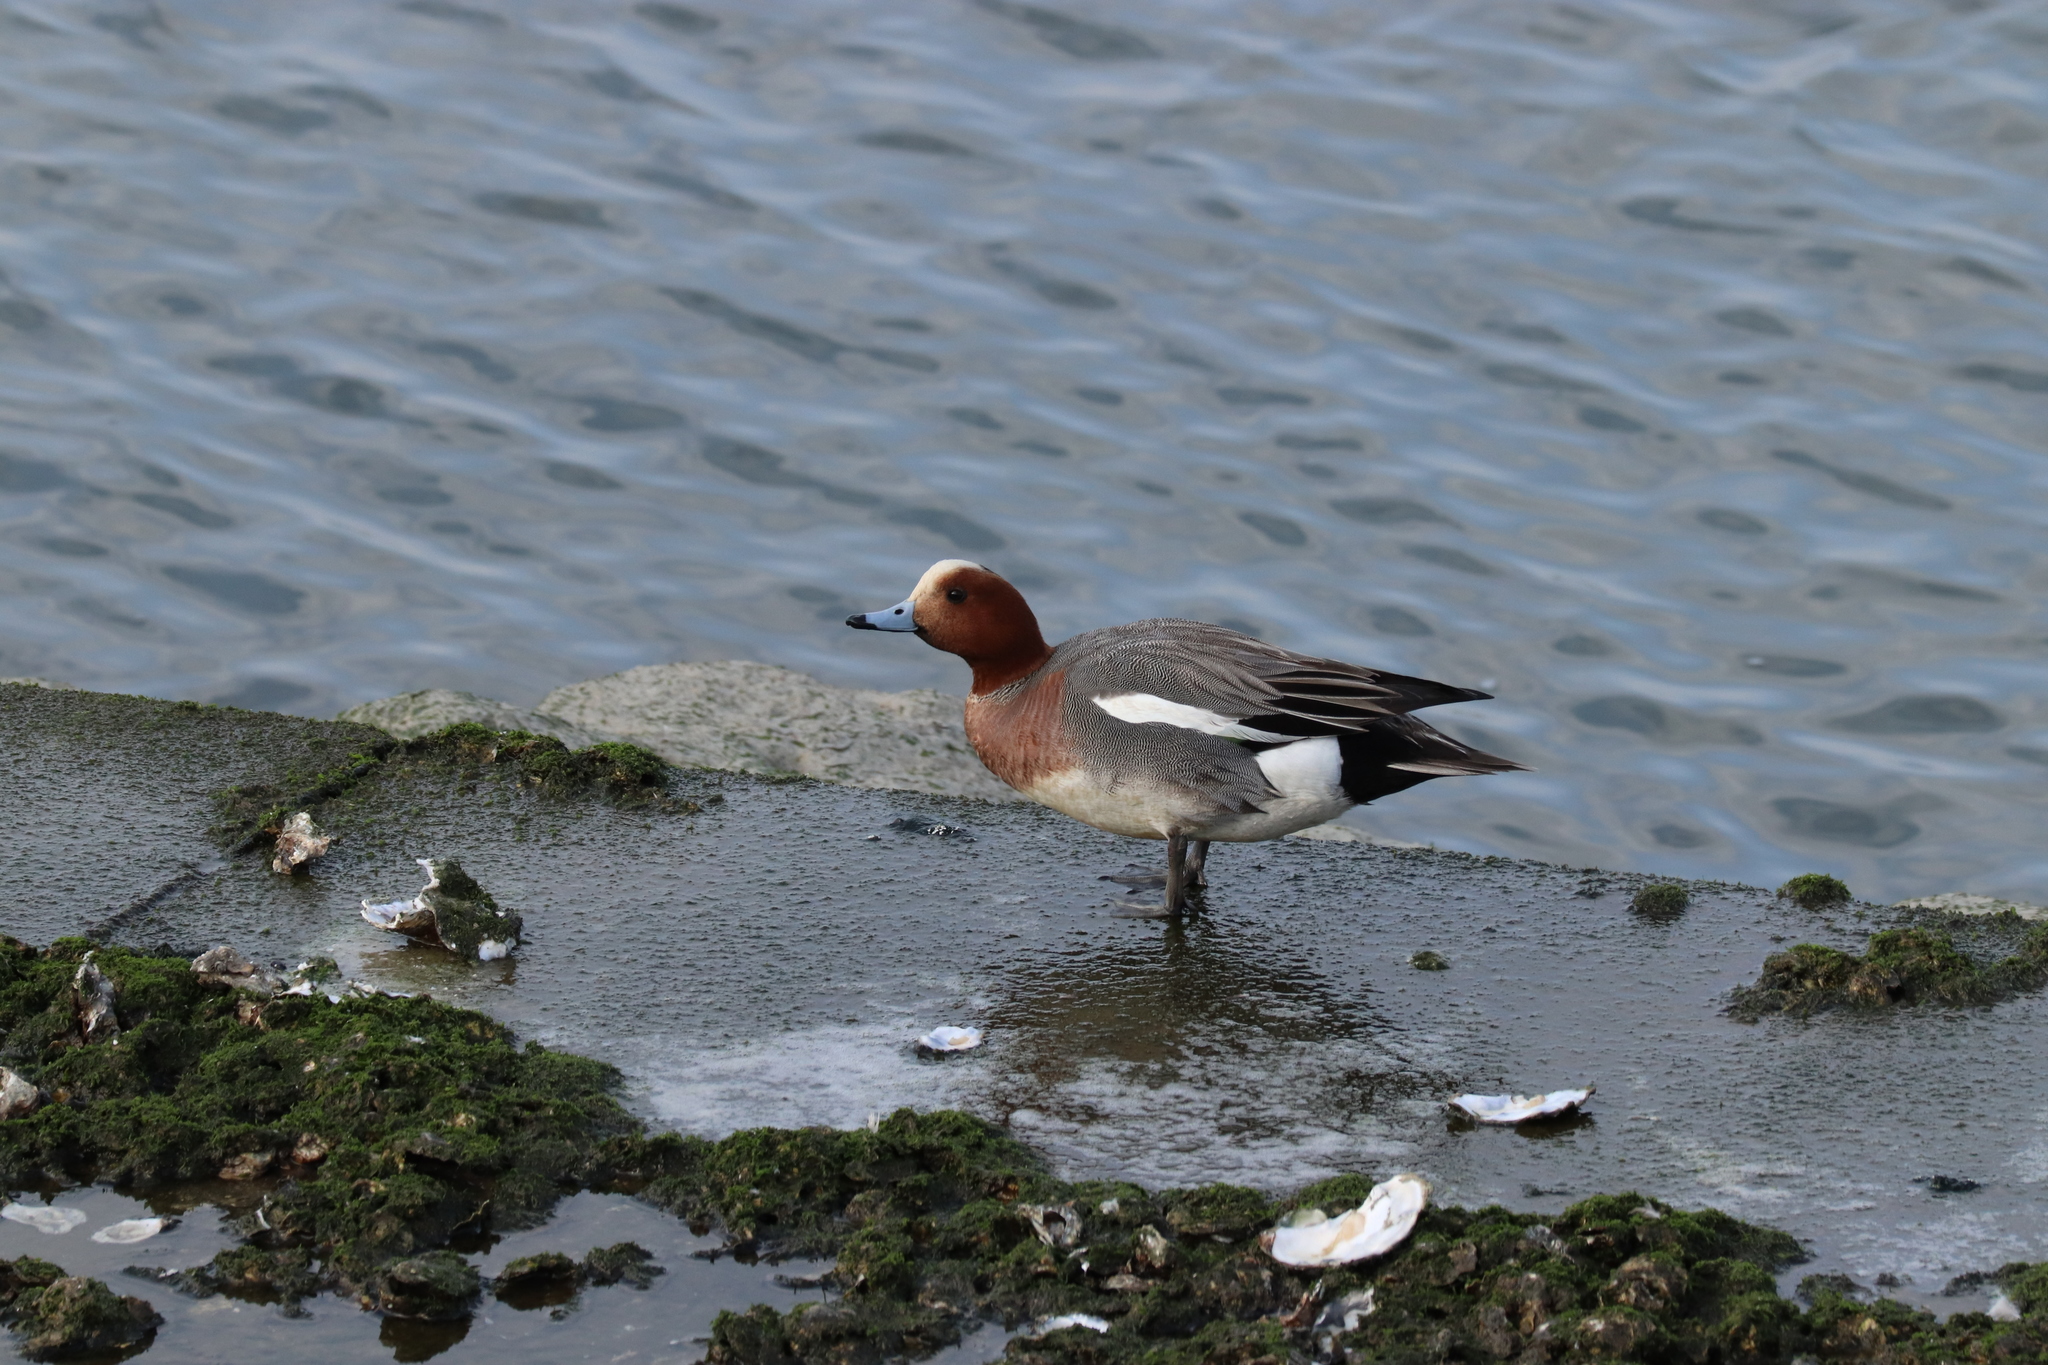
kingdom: Animalia
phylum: Chordata
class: Aves
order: Anseriformes
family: Anatidae
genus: Mareca
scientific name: Mareca penelope
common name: Eurasian wigeon
